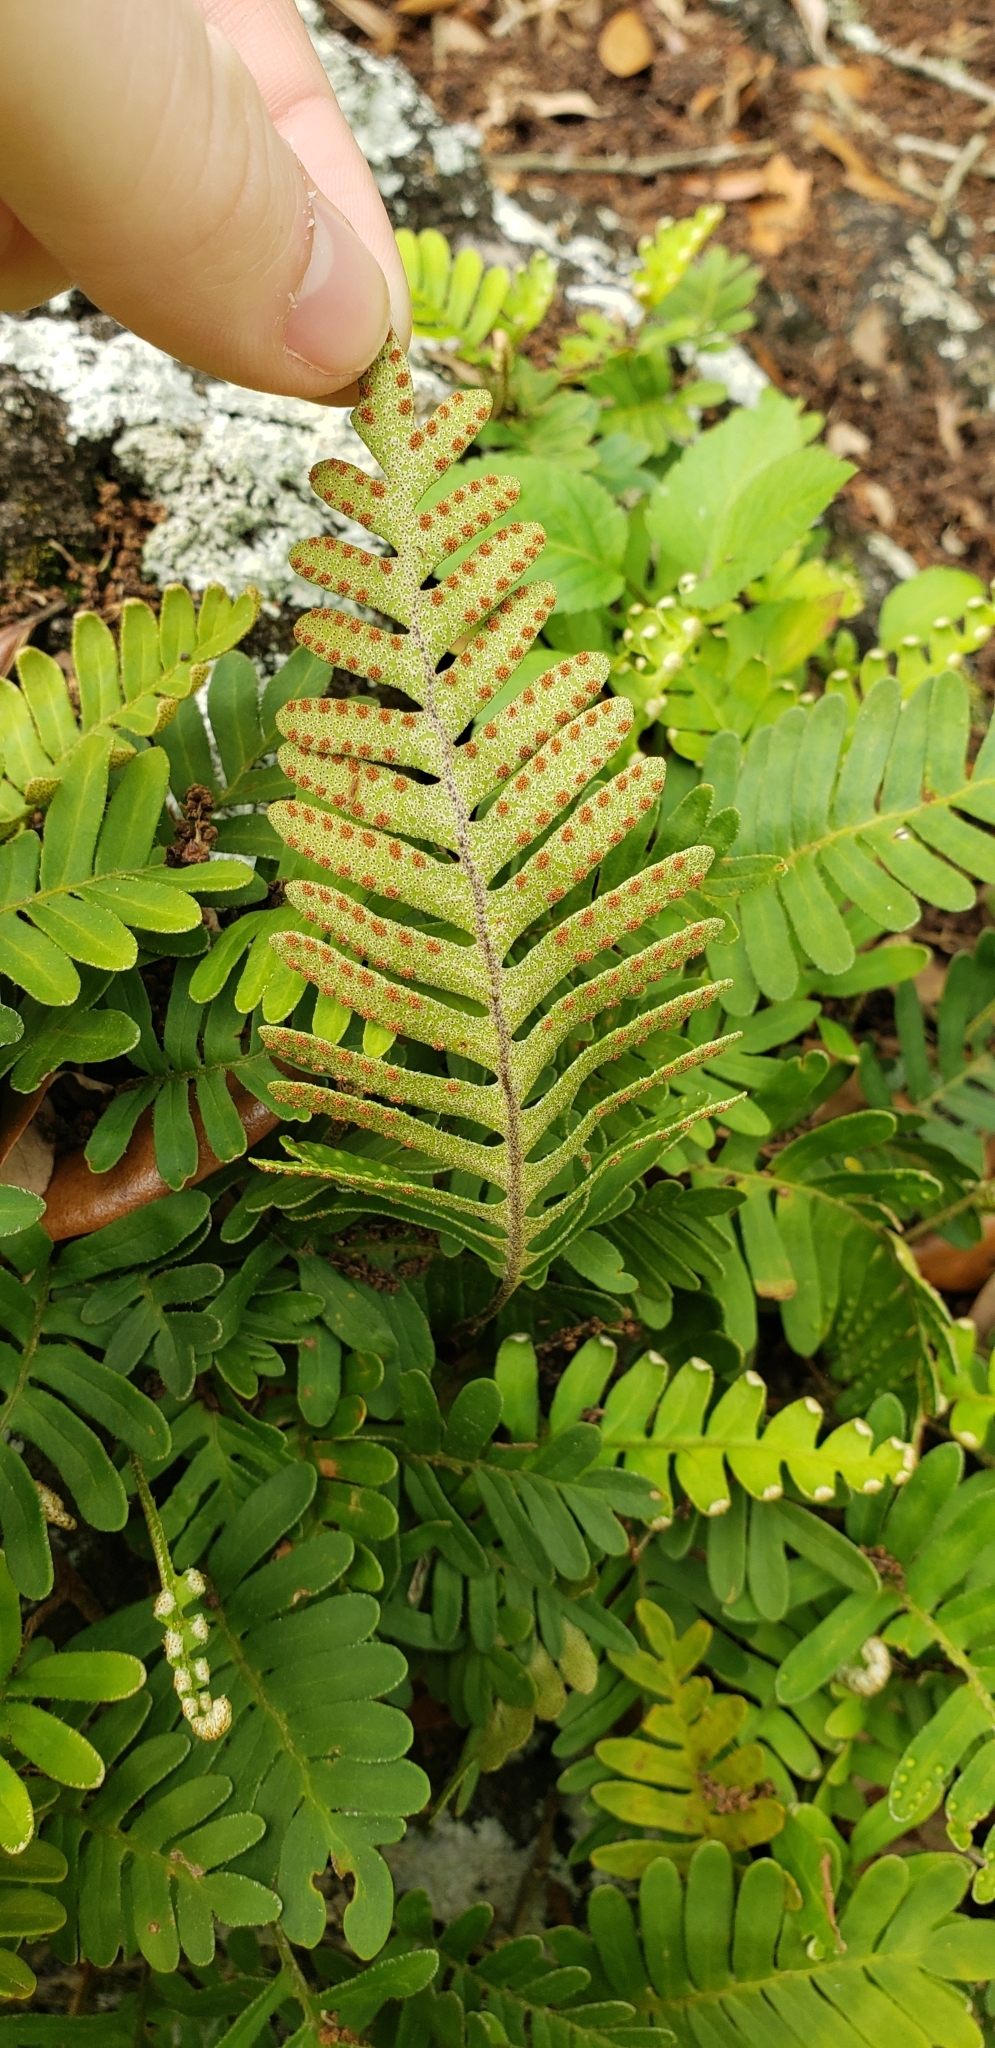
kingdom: Plantae
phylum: Tracheophyta
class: Polypodiopsida
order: Polypodiales
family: Polypodiaceae
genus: Pleopeltis
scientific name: Pleopeltis michauxiana
